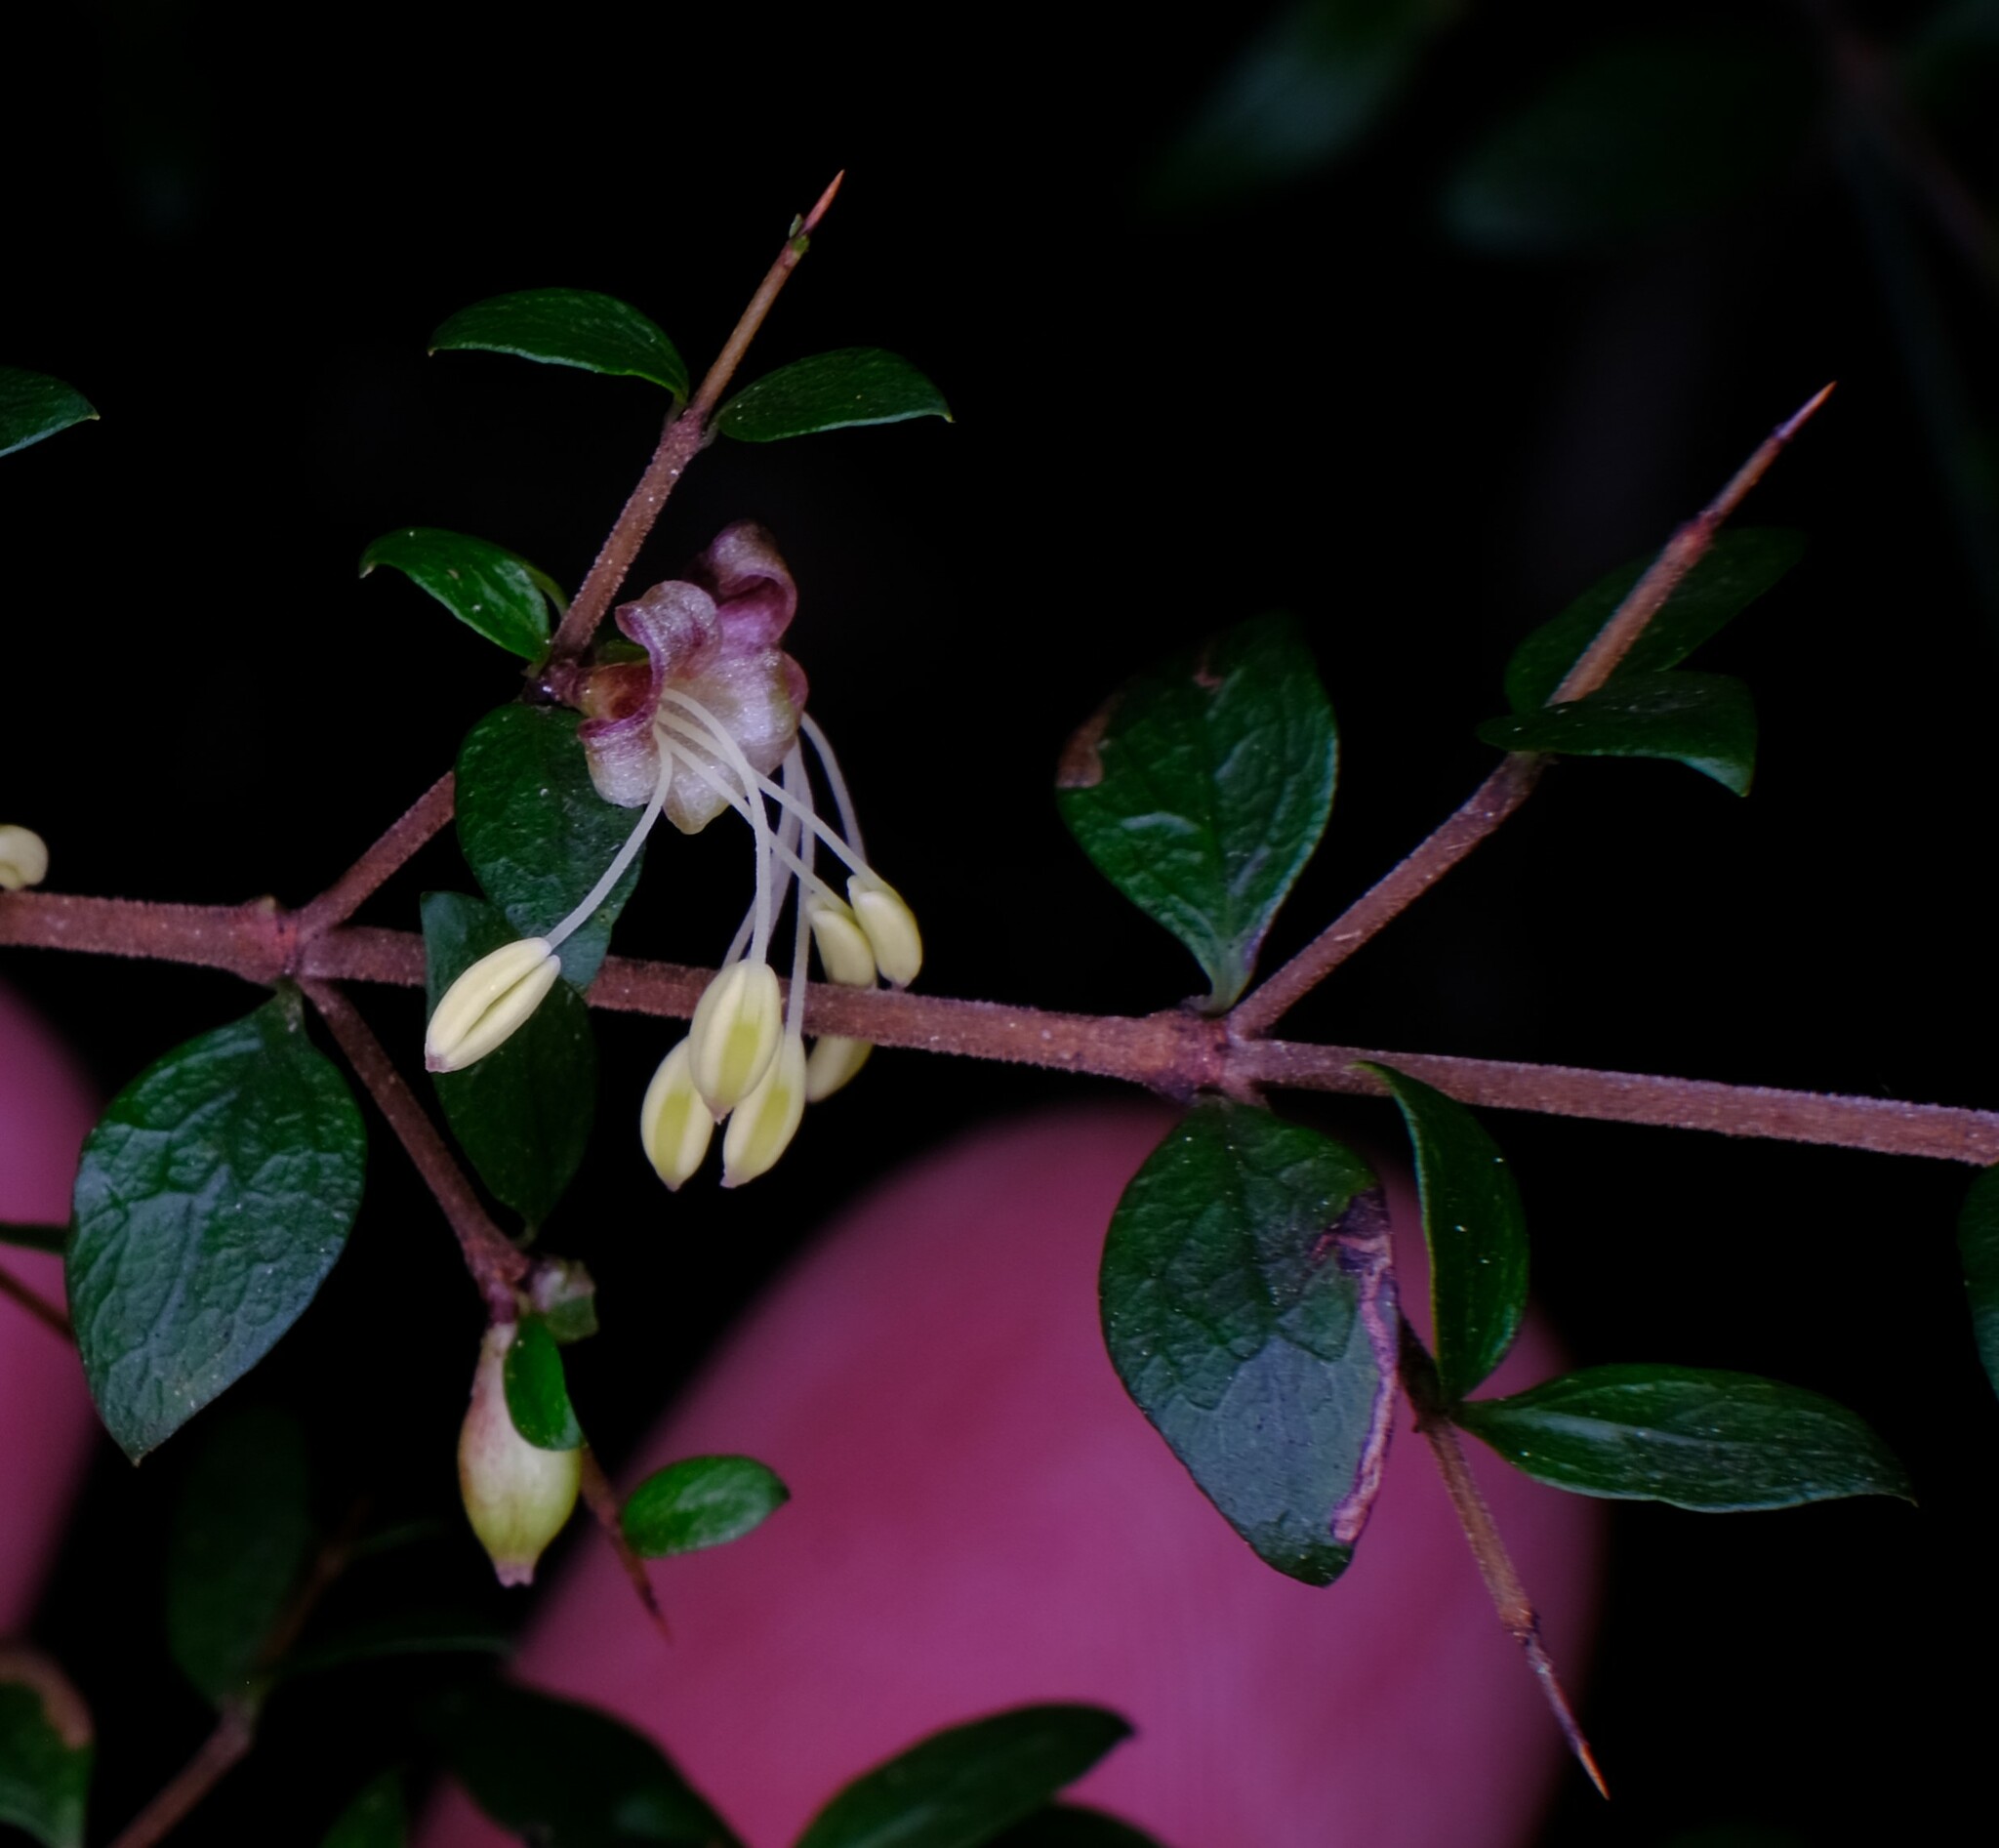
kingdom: Plantae
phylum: Tracheophyta
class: Magnoliopsida
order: Gentianales
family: Rubiaceae
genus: Coprosma
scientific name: Coprosma quadrifida
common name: Prickly currantbush
